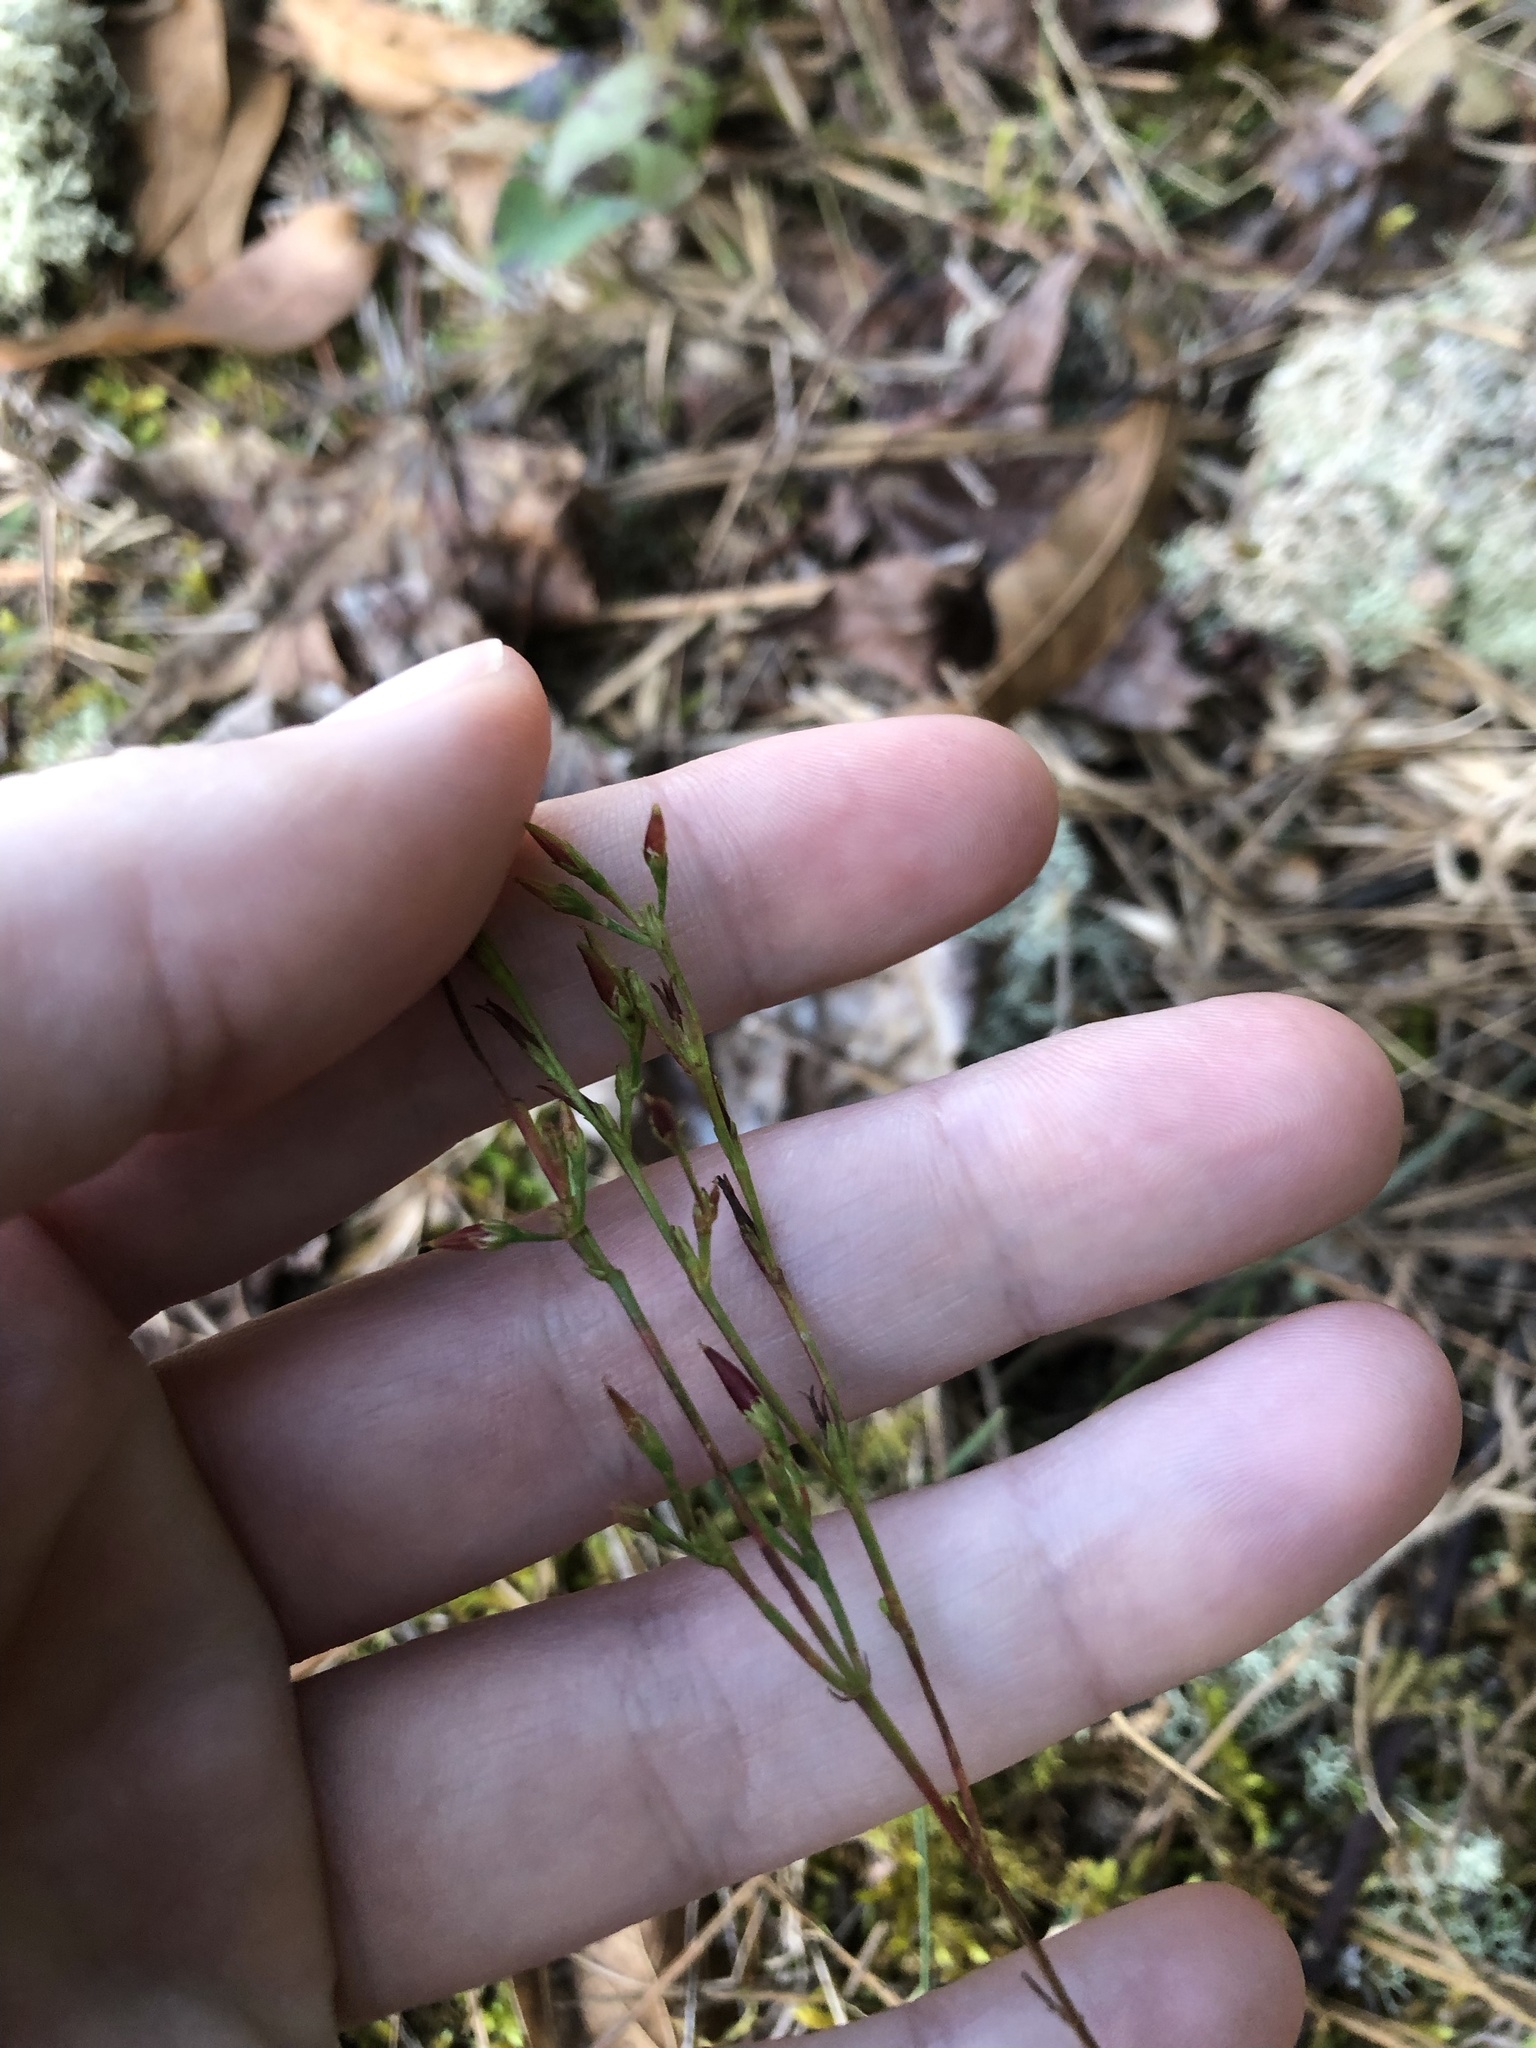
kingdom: Plantae
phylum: Tracheophyta
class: Magnoliopsida
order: Malpighiales
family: Hypericaceae
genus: Hypericum
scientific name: Hypericum gentianoides
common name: Gentian-leaved st. john's-wort
